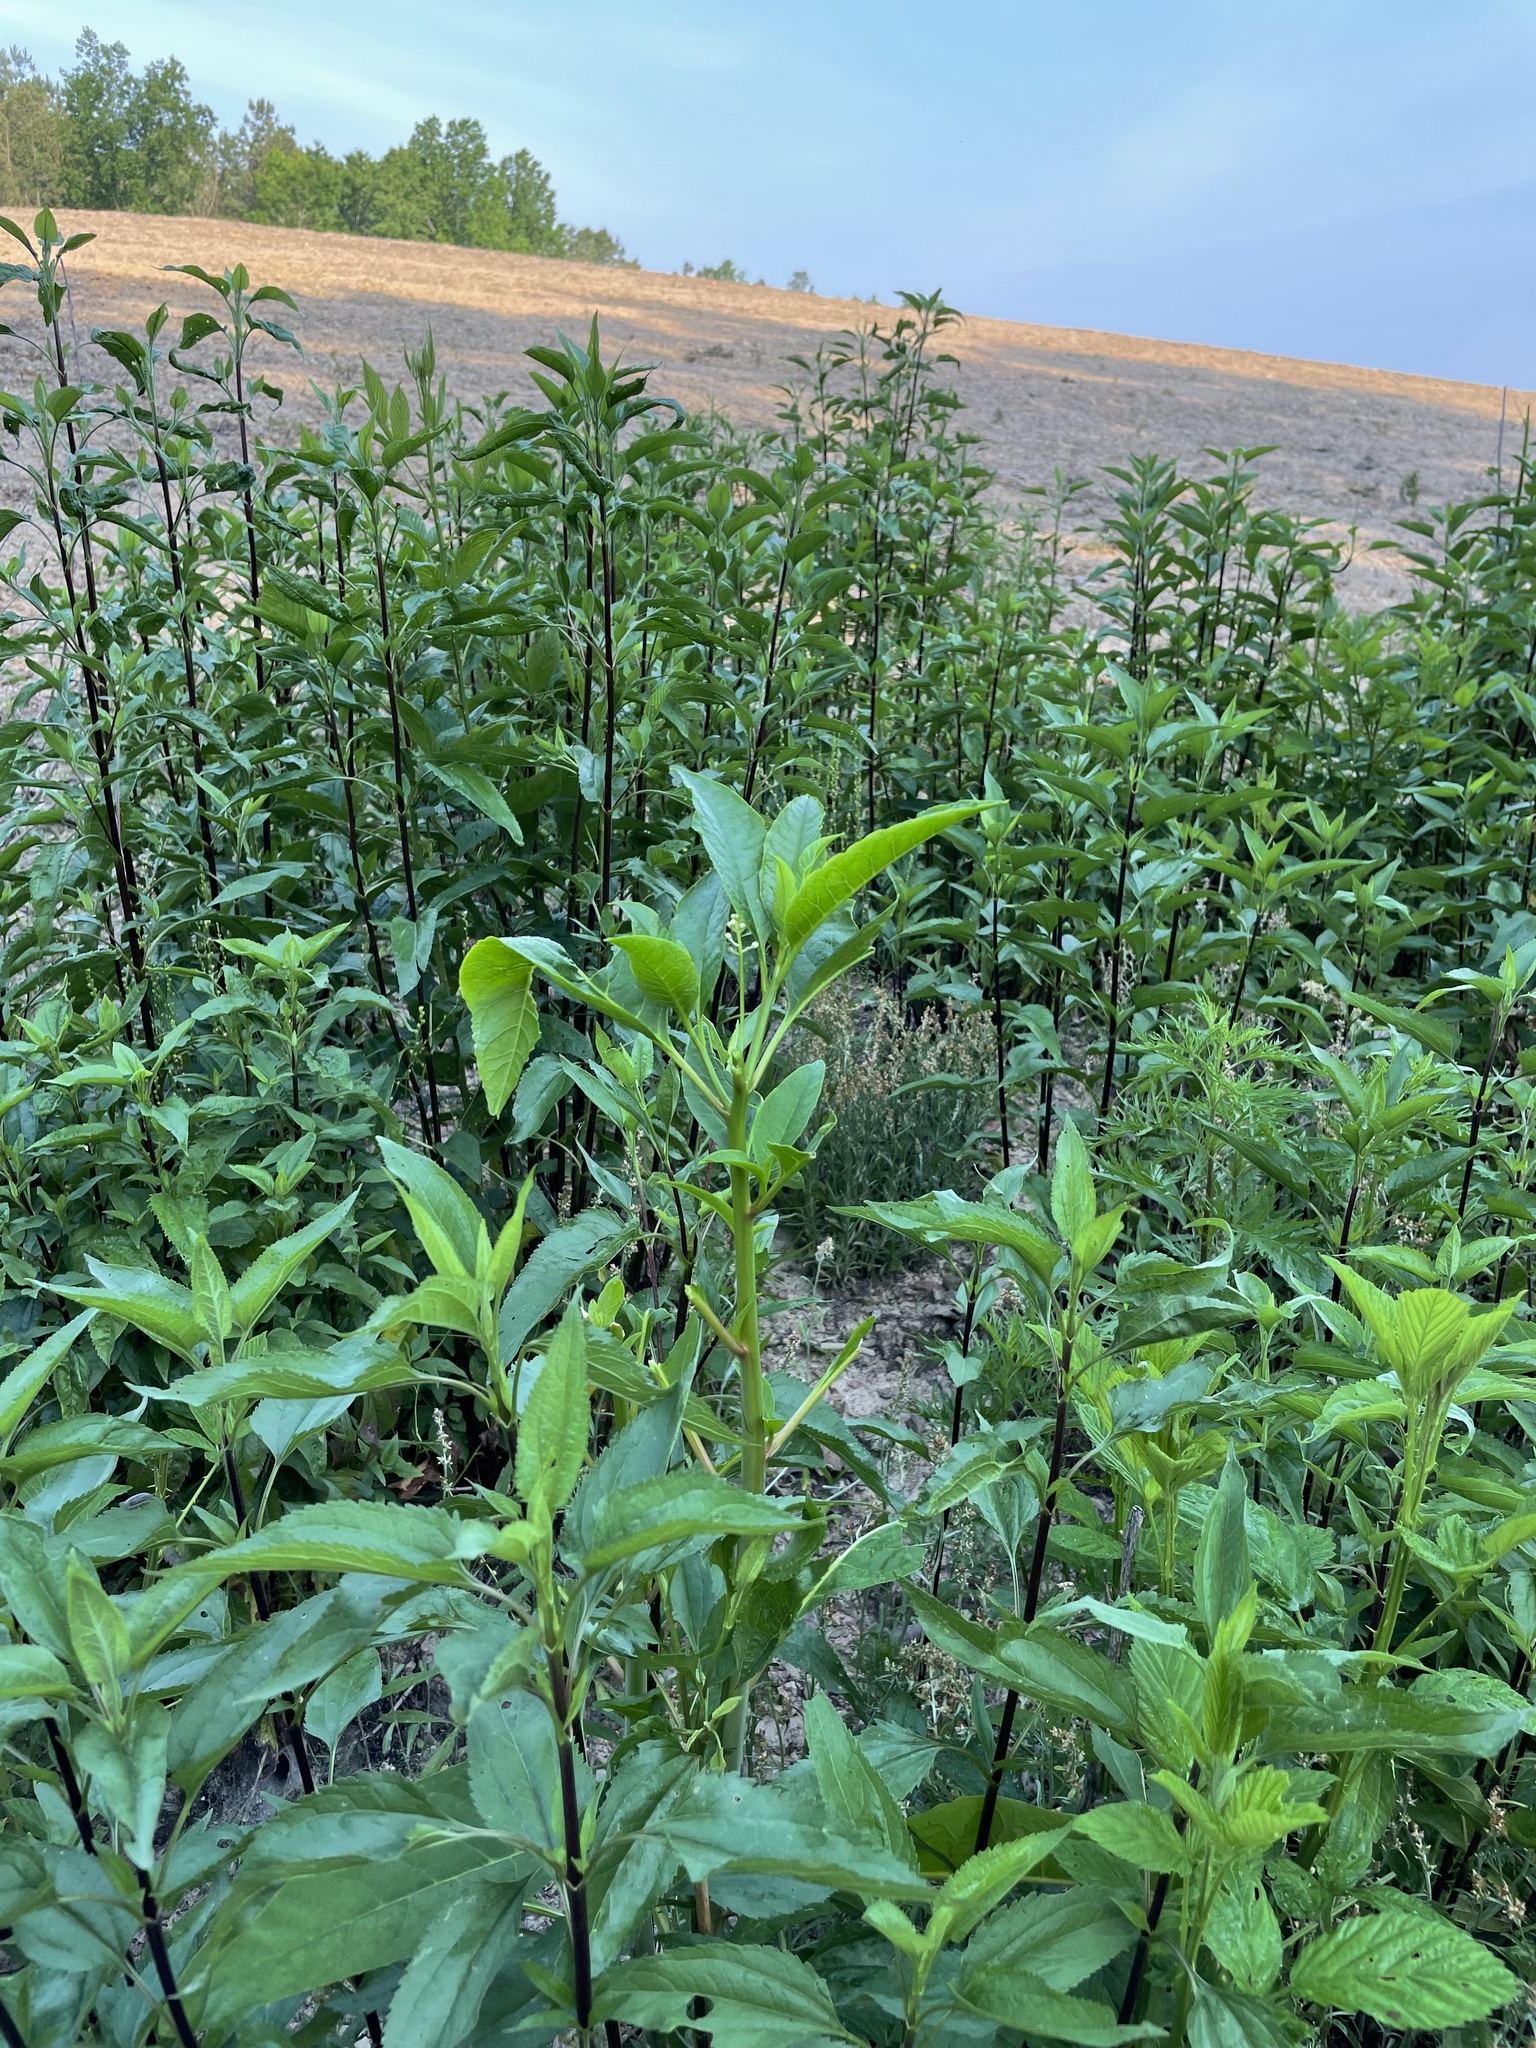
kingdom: Plantae
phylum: Tracheophyta
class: Magnoliopsida
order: Asterales
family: Asteraceae
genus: Eupatorium
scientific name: Eupatorium serotinum
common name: Late boneset
